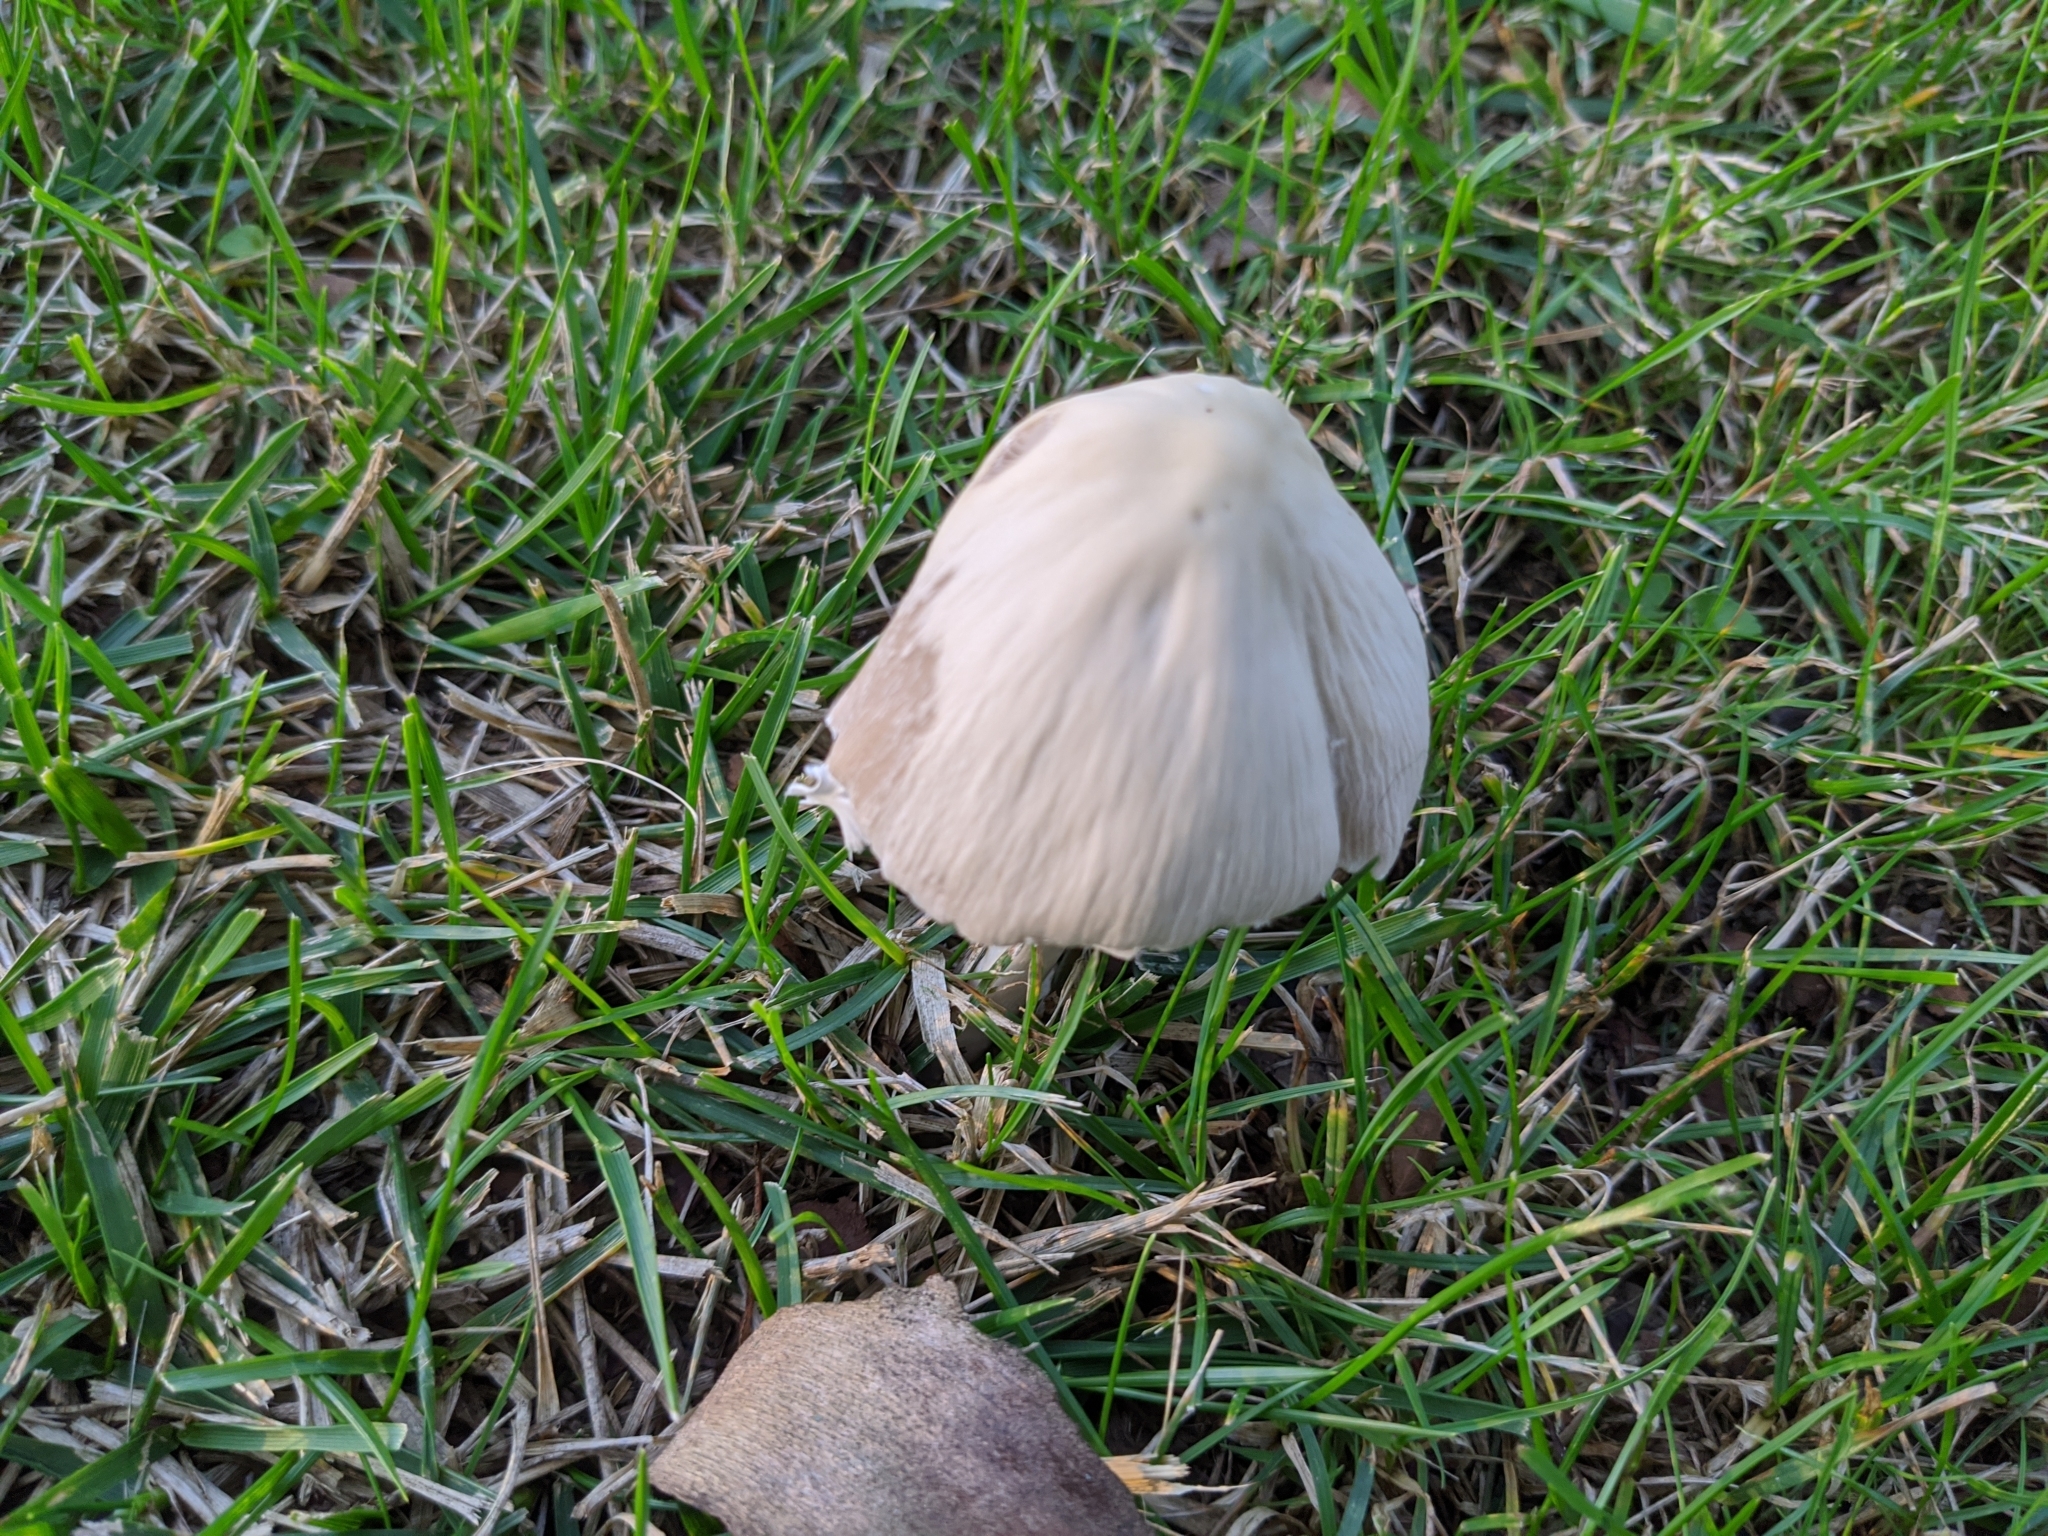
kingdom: Fungi
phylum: Basidiomycota
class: Agaricomycetes
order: Agaricales
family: Psathyrellaceae
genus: Candolleomyces
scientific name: Candolleomyces candolleanus
